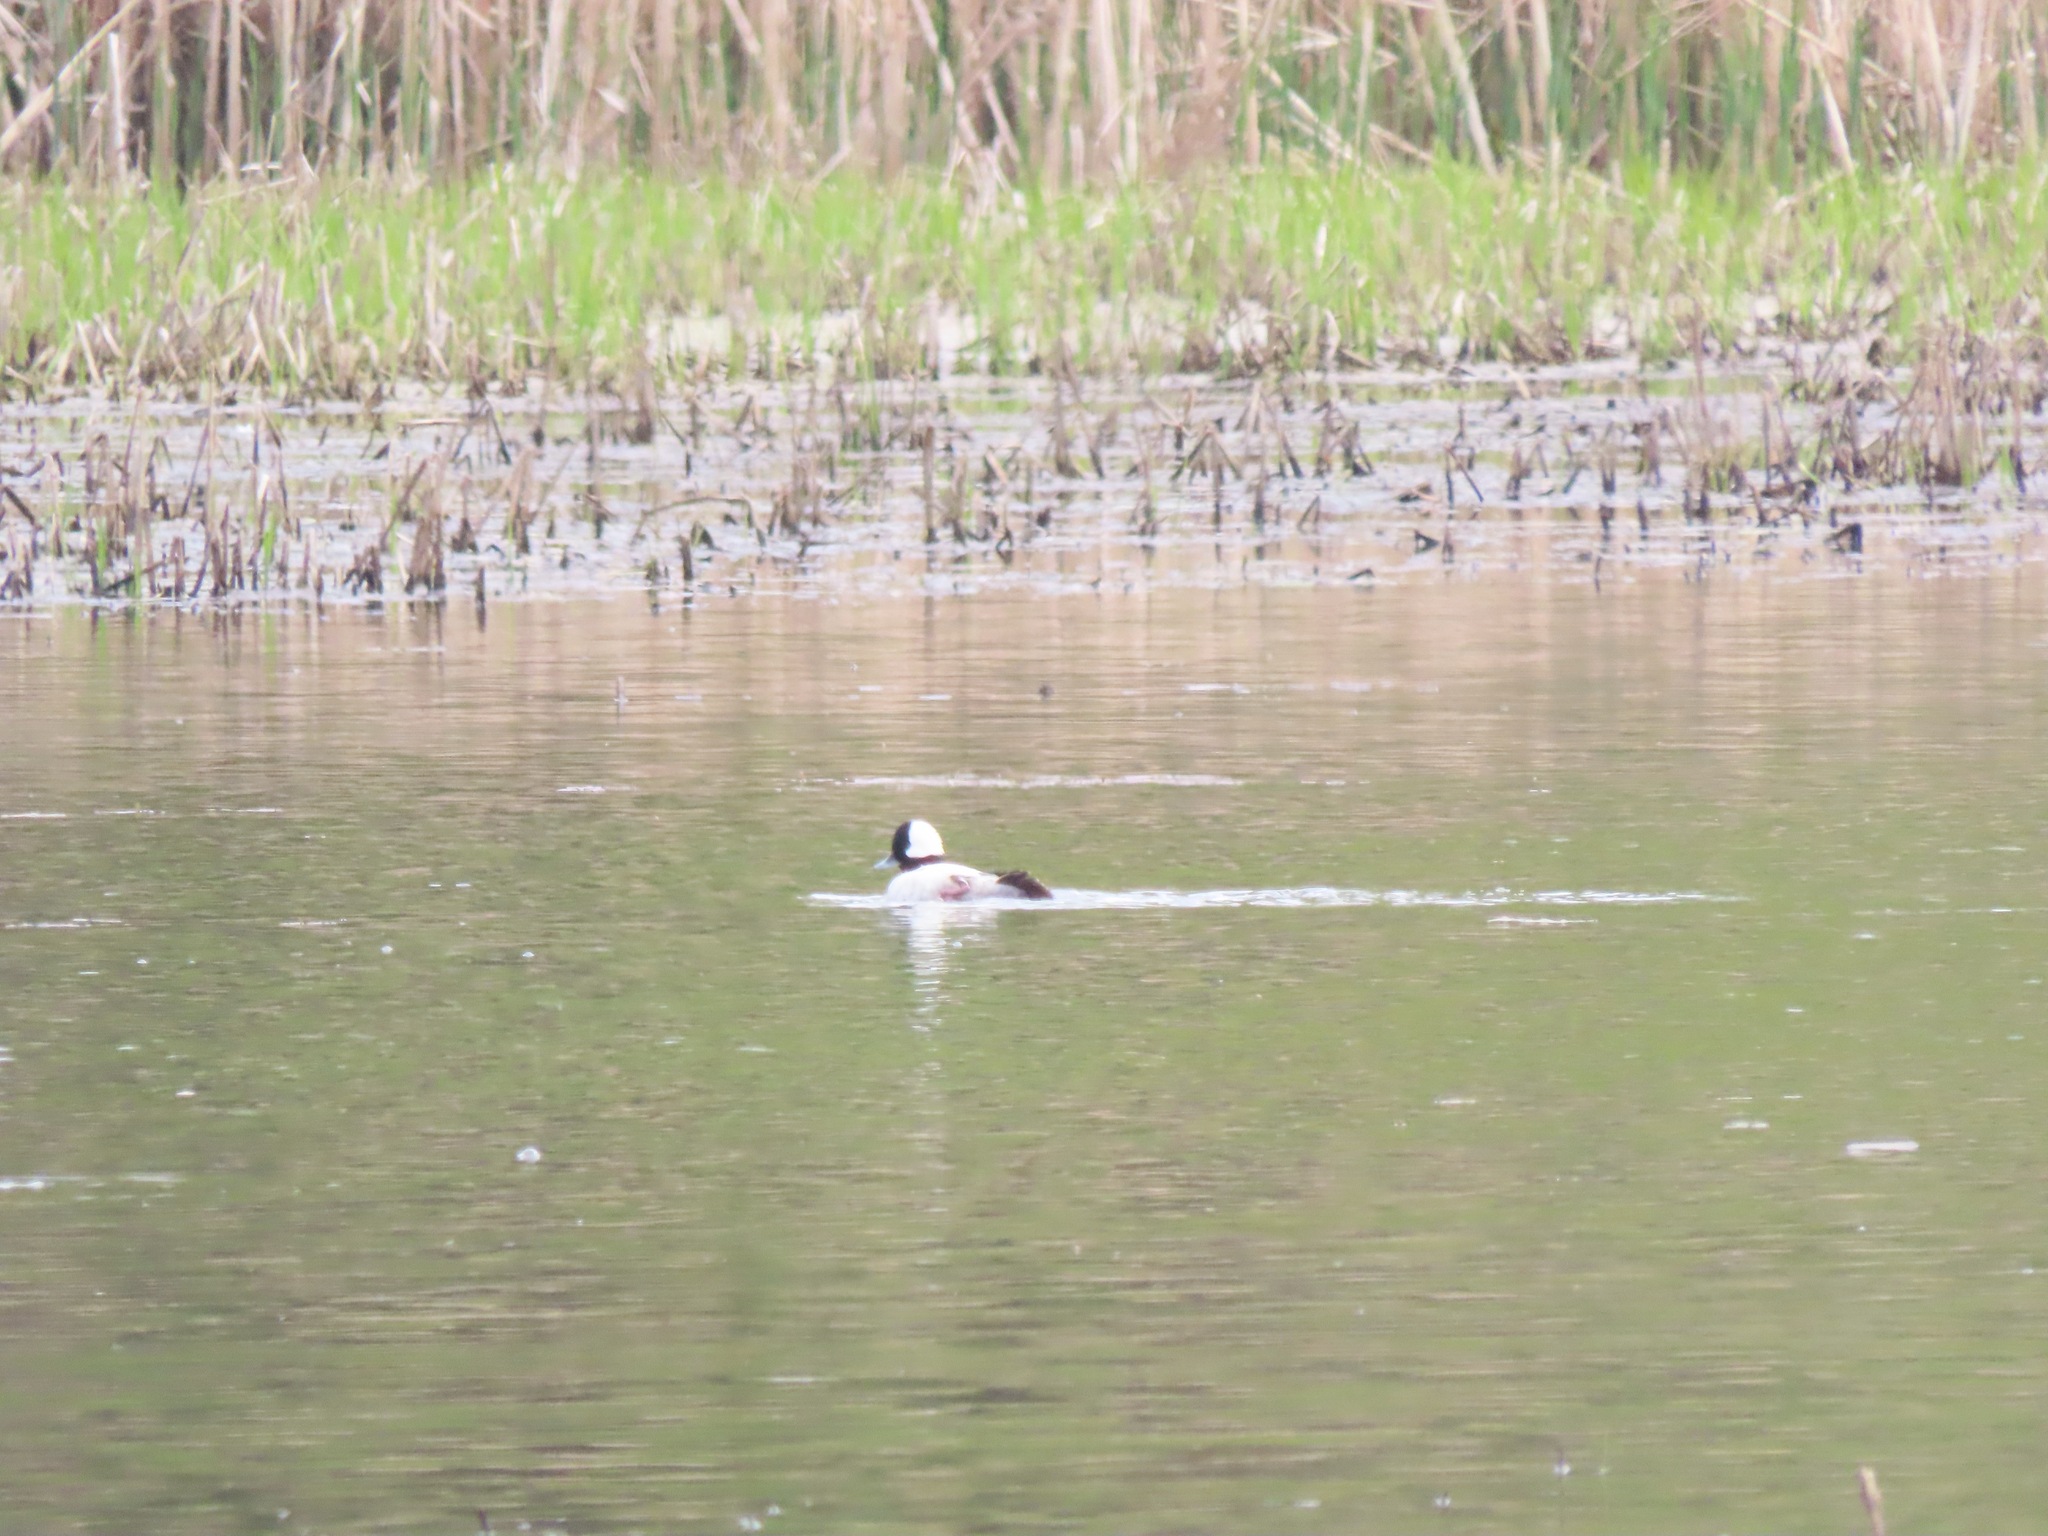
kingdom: Animalia
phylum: Chordata
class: Aves
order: Anseriformes
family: Anatidae
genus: Bucephala
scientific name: Bucephala albeola
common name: Bufflehead
